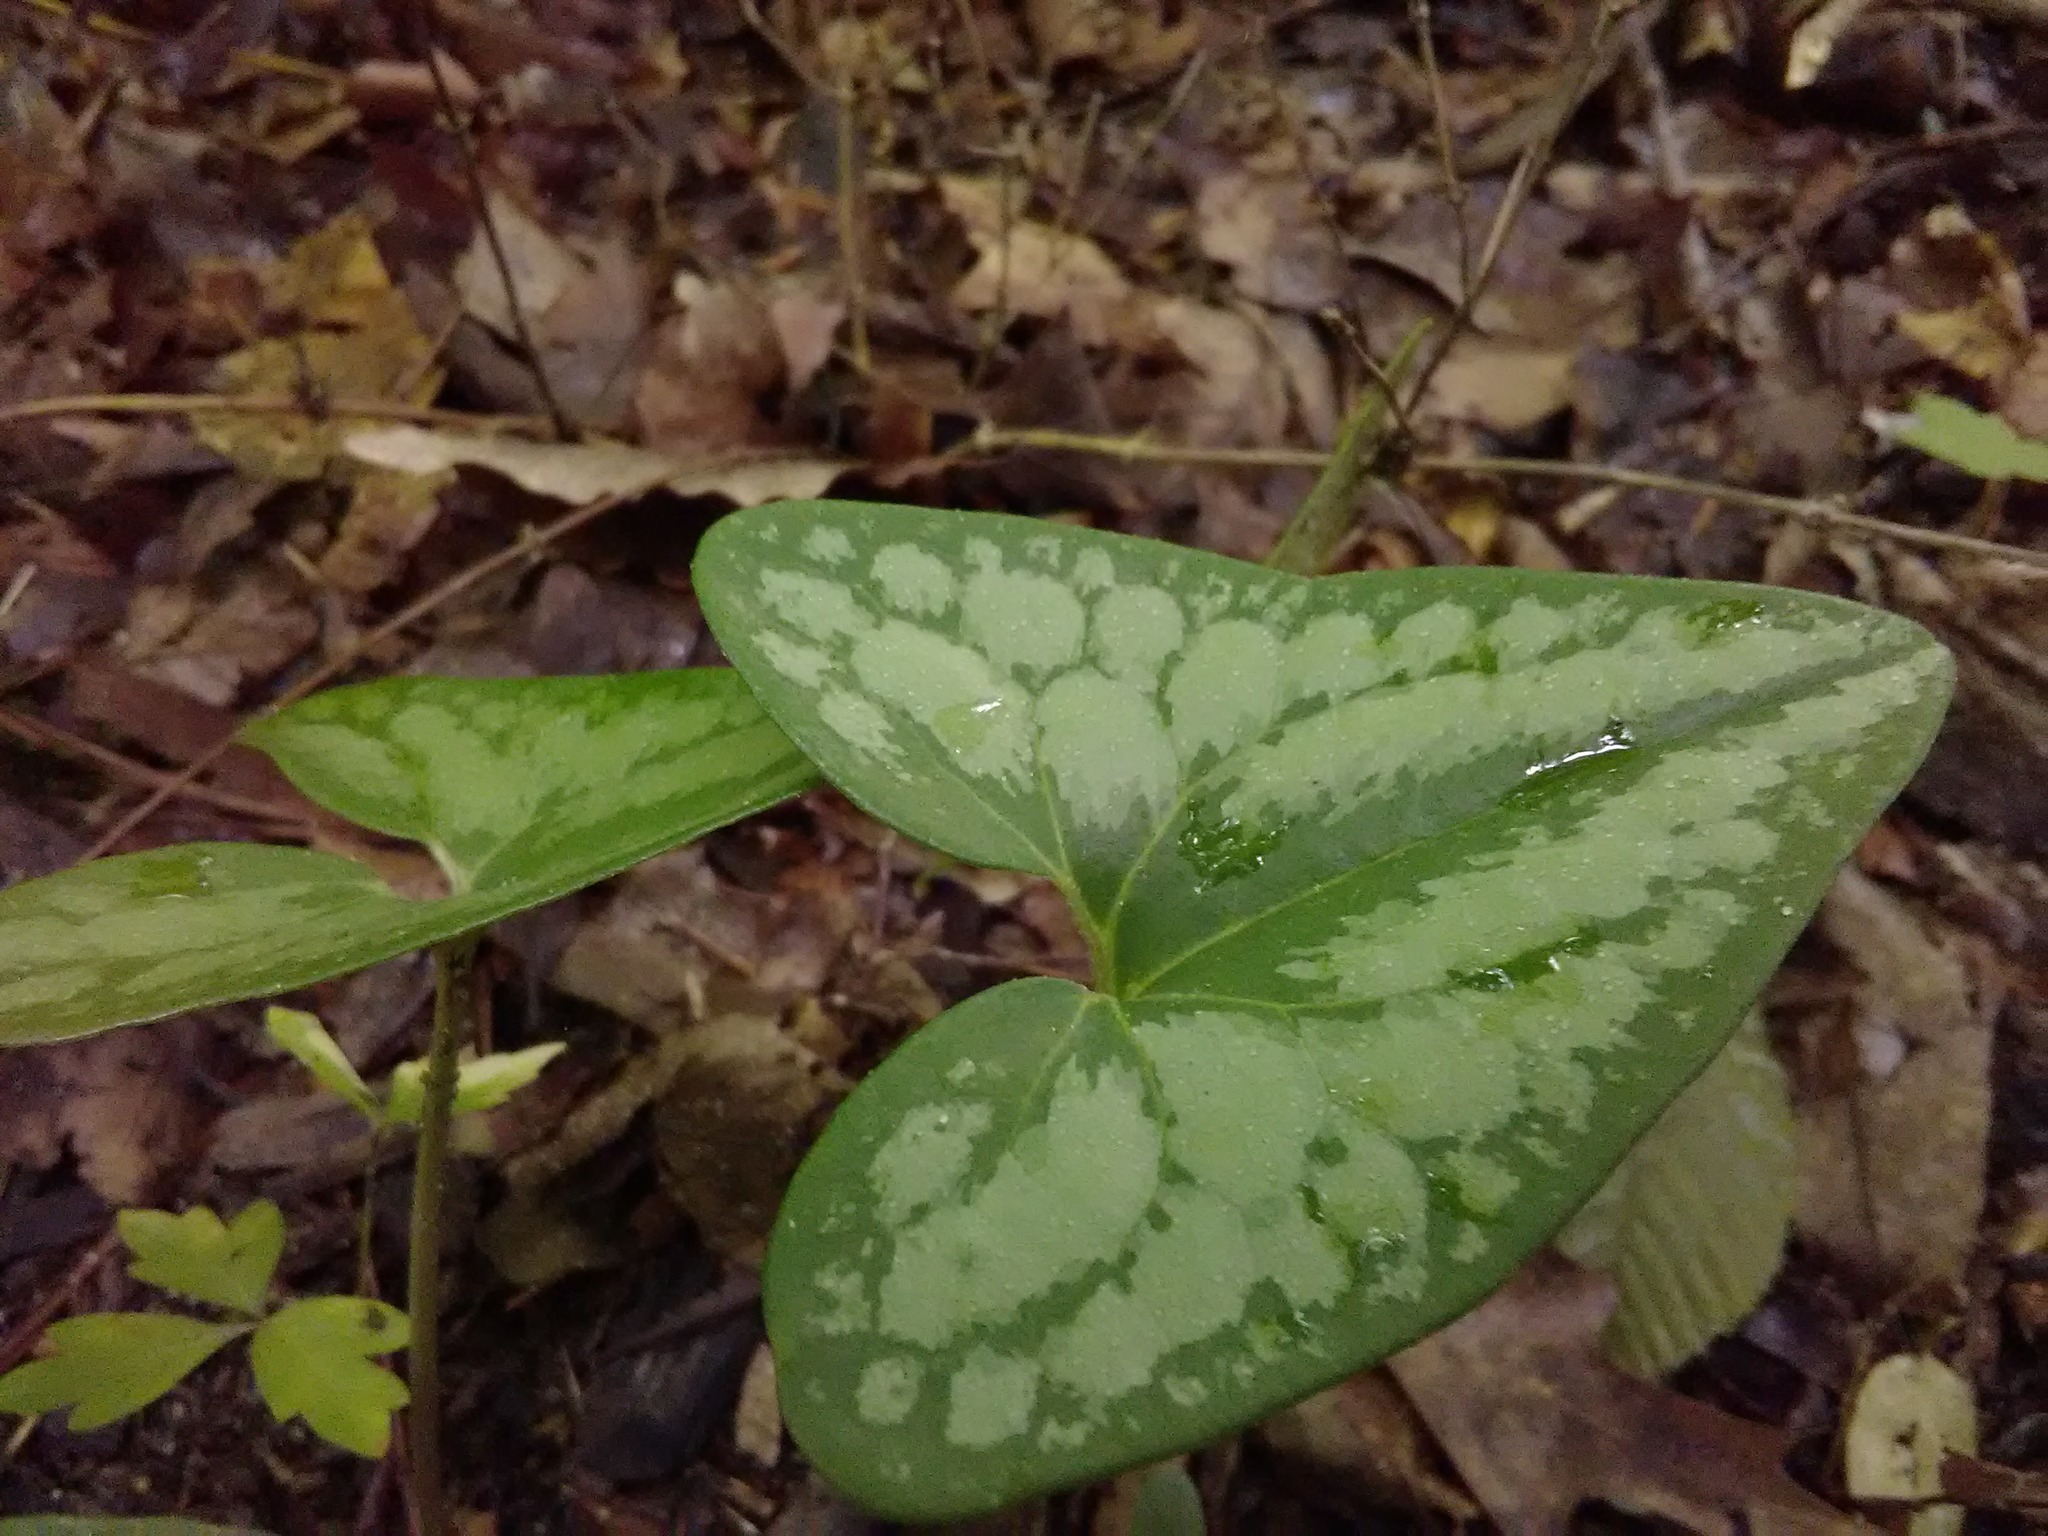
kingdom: Plantae
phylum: Tracheophyta
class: Magnoliopsida
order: Piperales
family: Aristolochiaceae
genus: Hexastylis
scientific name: Hexastylis arifolia
